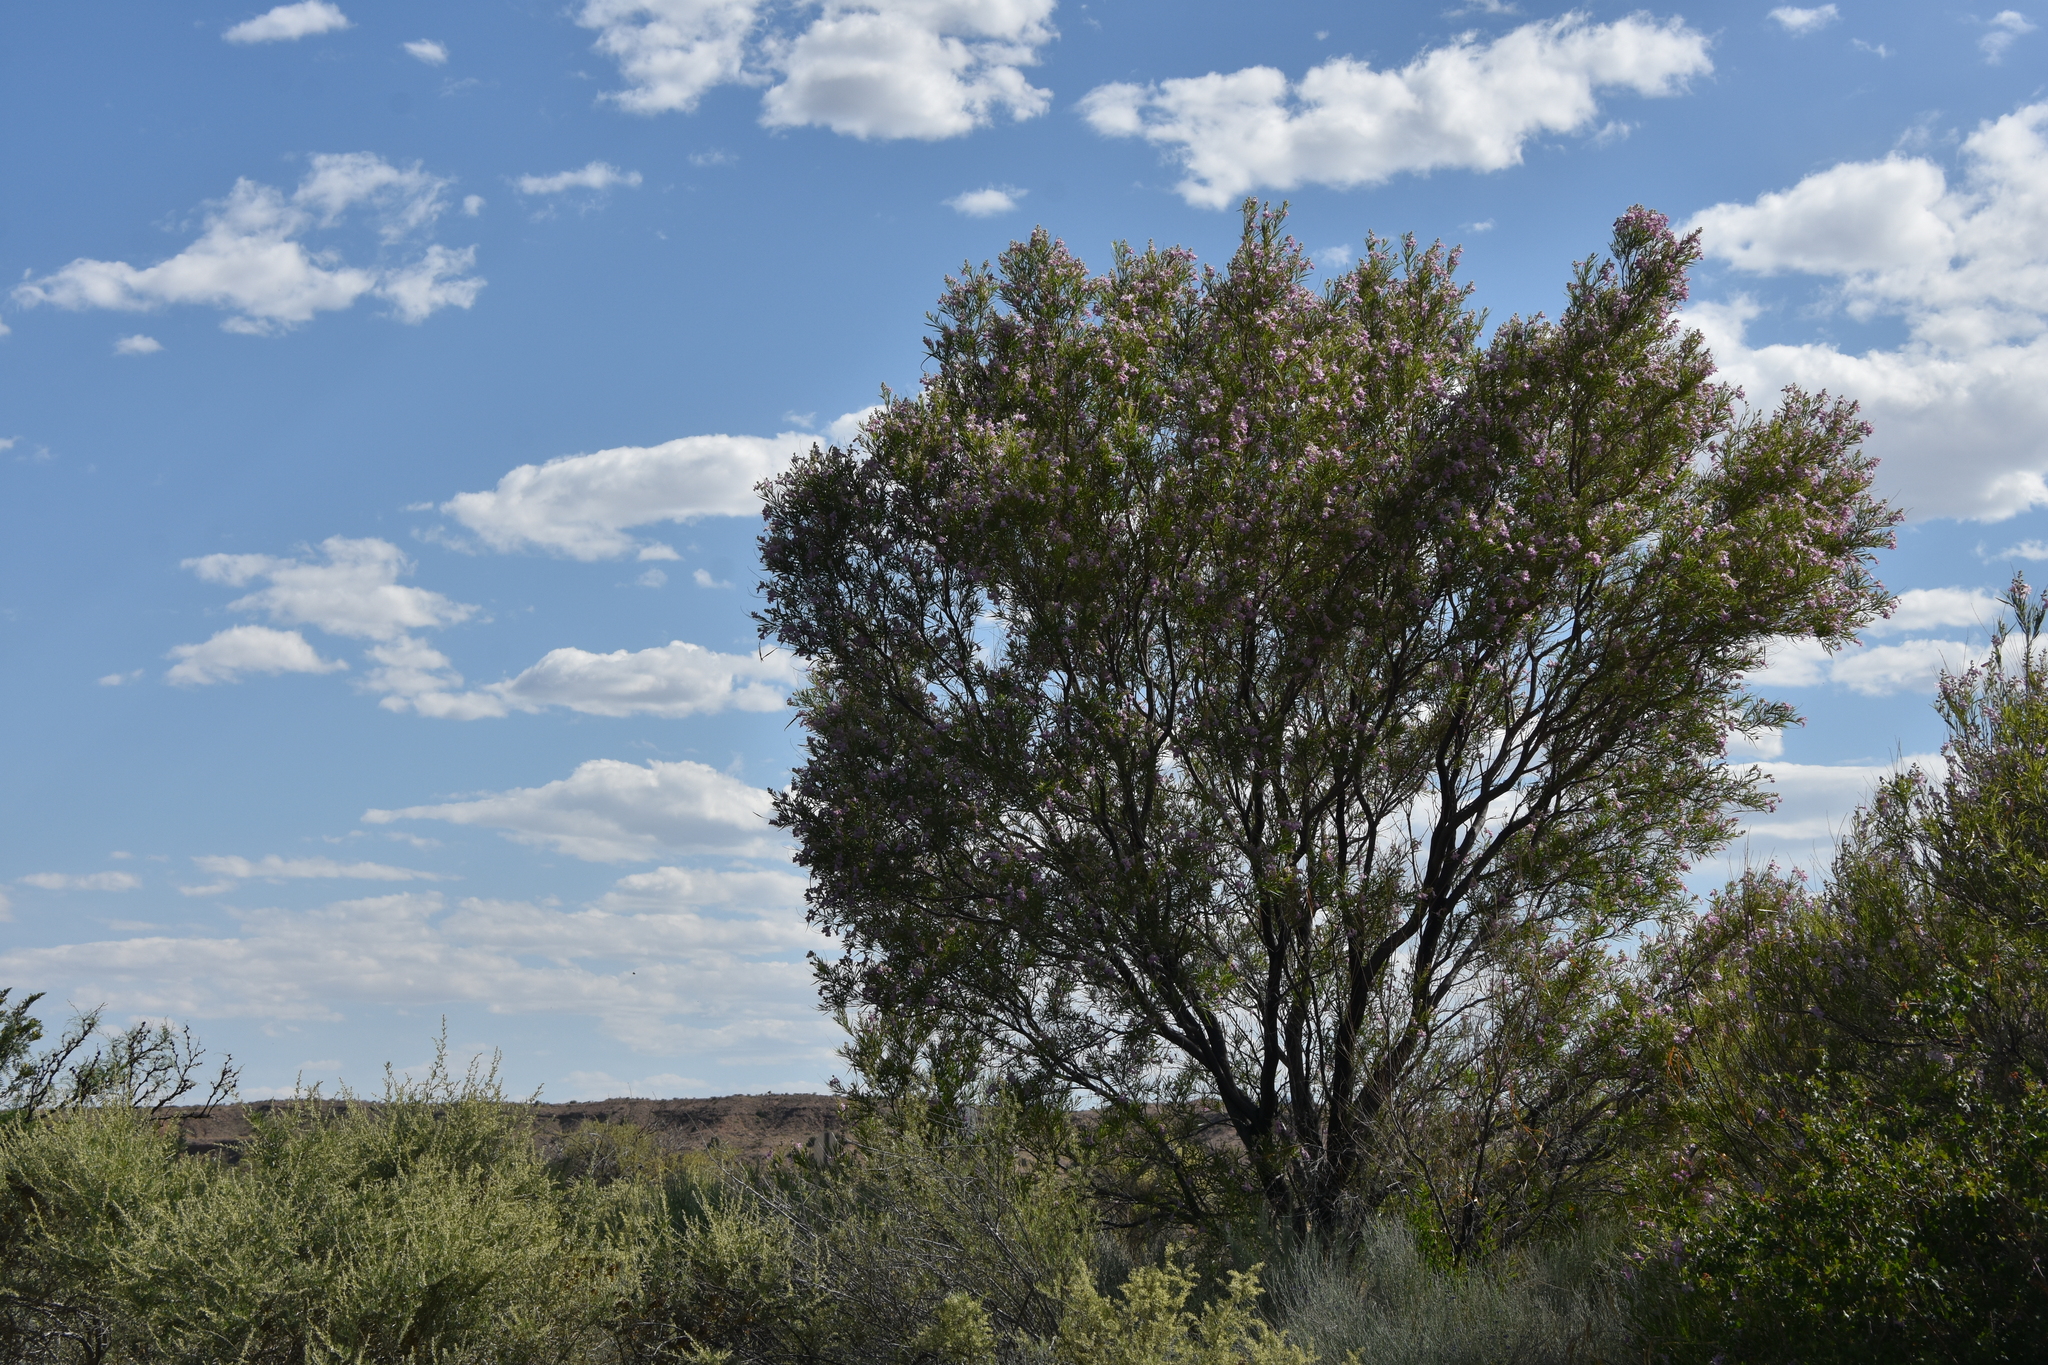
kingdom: Plantae
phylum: Tracheophyta
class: Magnoliopsida
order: Lamiales
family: Bignoniaceae
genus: Chilopsis
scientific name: Chilopsis linearis
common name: Desert-willow
